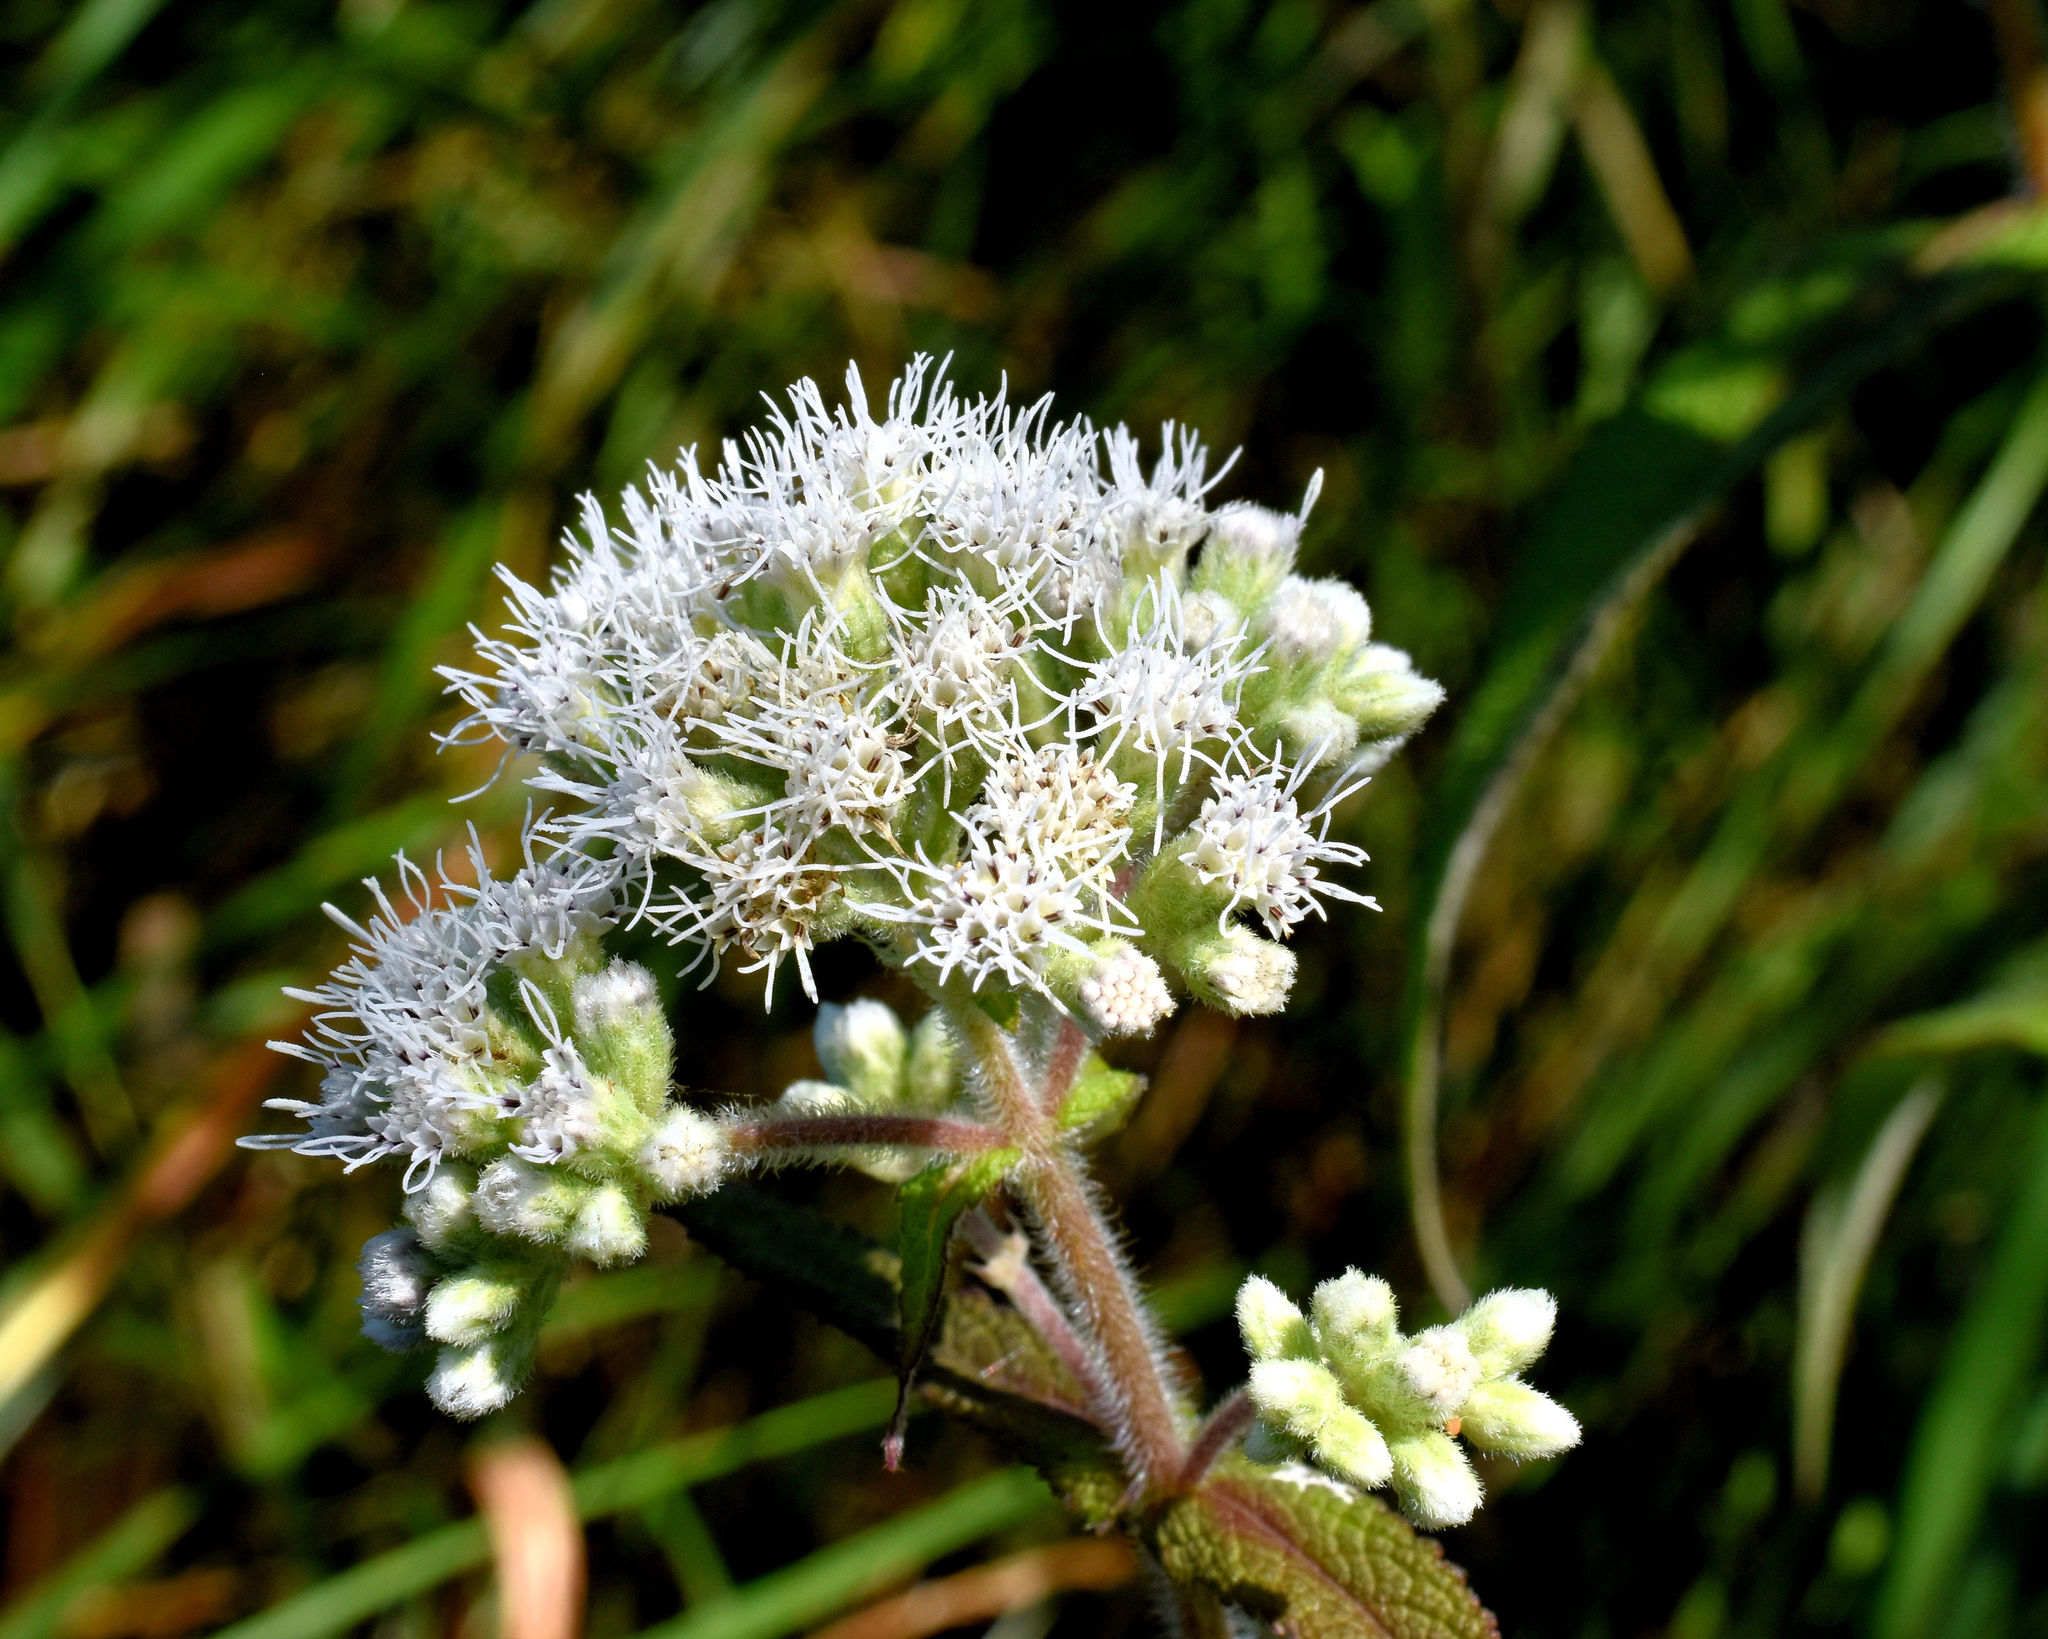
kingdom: Plantae
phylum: Tracheophyta
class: Magnoliopsida
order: Asterales
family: Asteraceae
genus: Eupatorium
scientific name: Eupatorium perfoliatum
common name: Boneset
